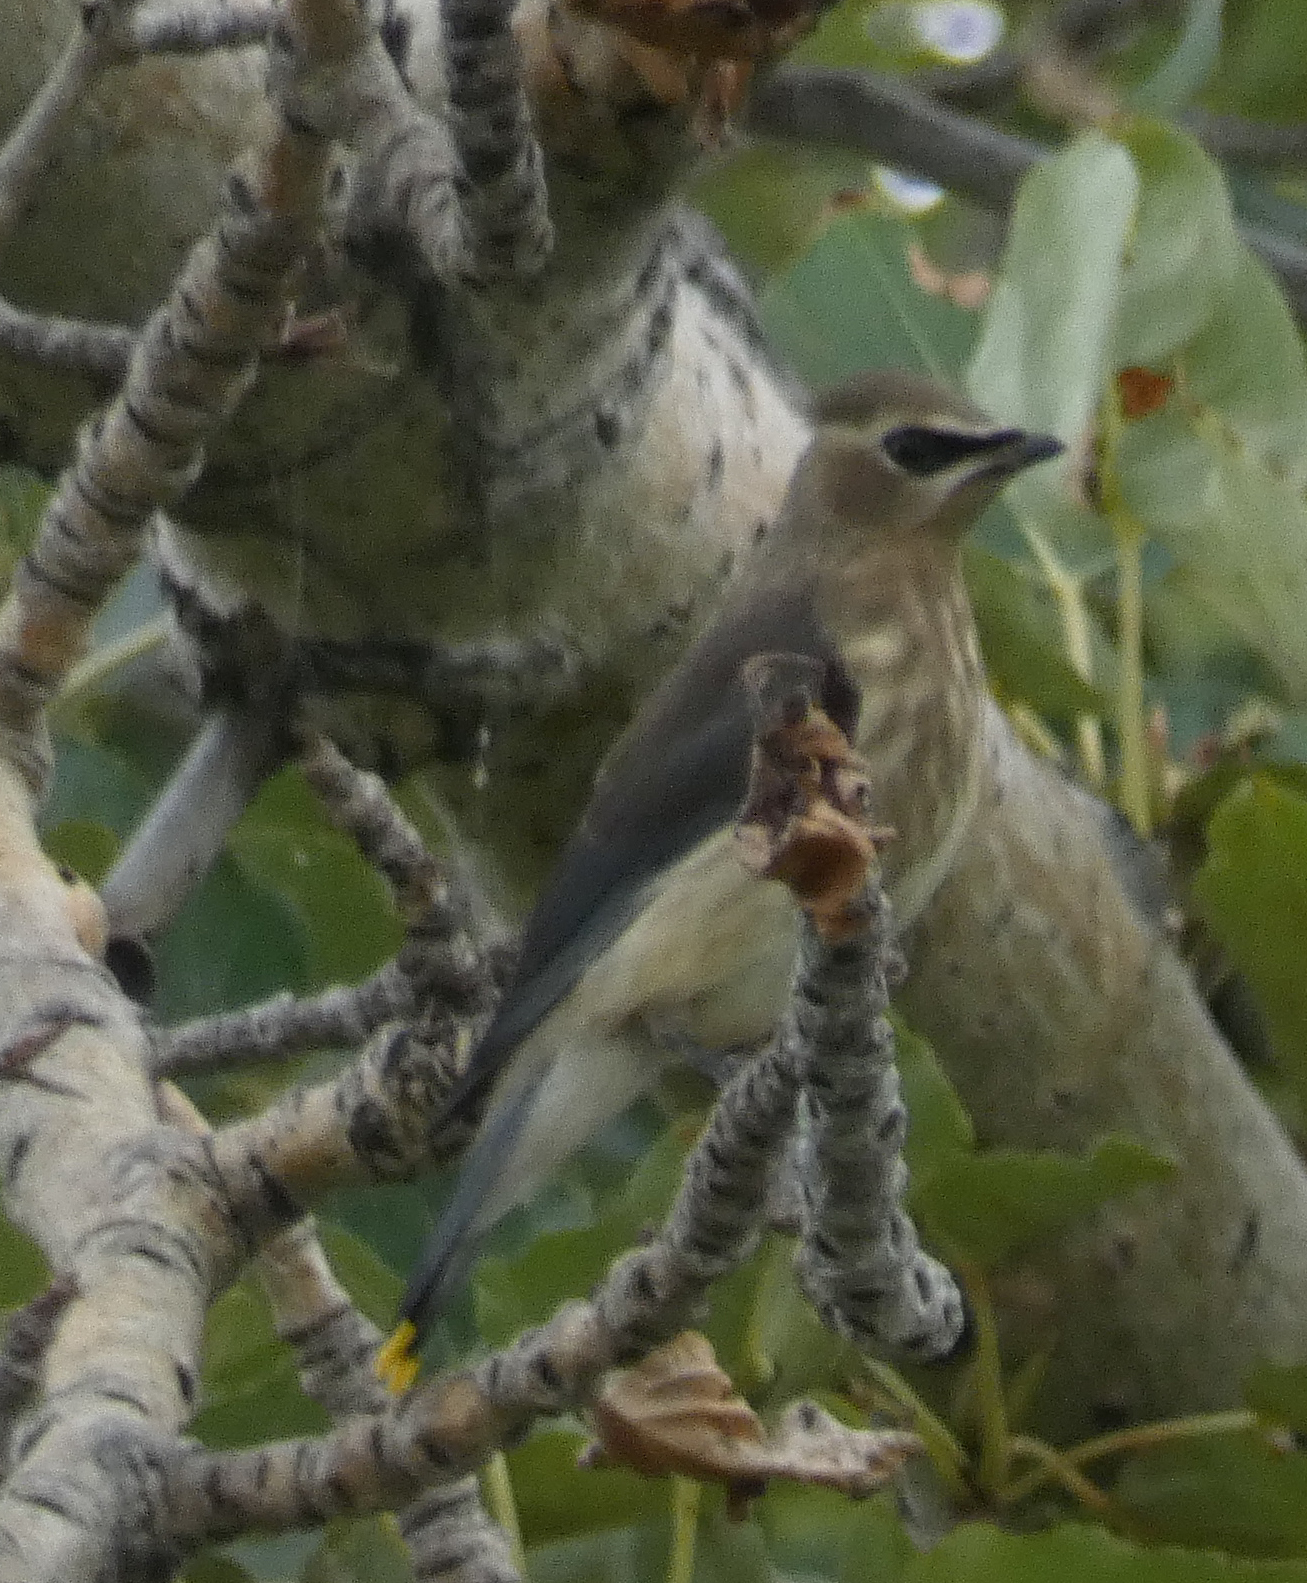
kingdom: Animalia
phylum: Chordata
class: Aves
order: Passeriformes
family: Bombycillidae
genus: Bombycilla
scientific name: Bombycilla cedrorum
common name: Cedar waxwing
